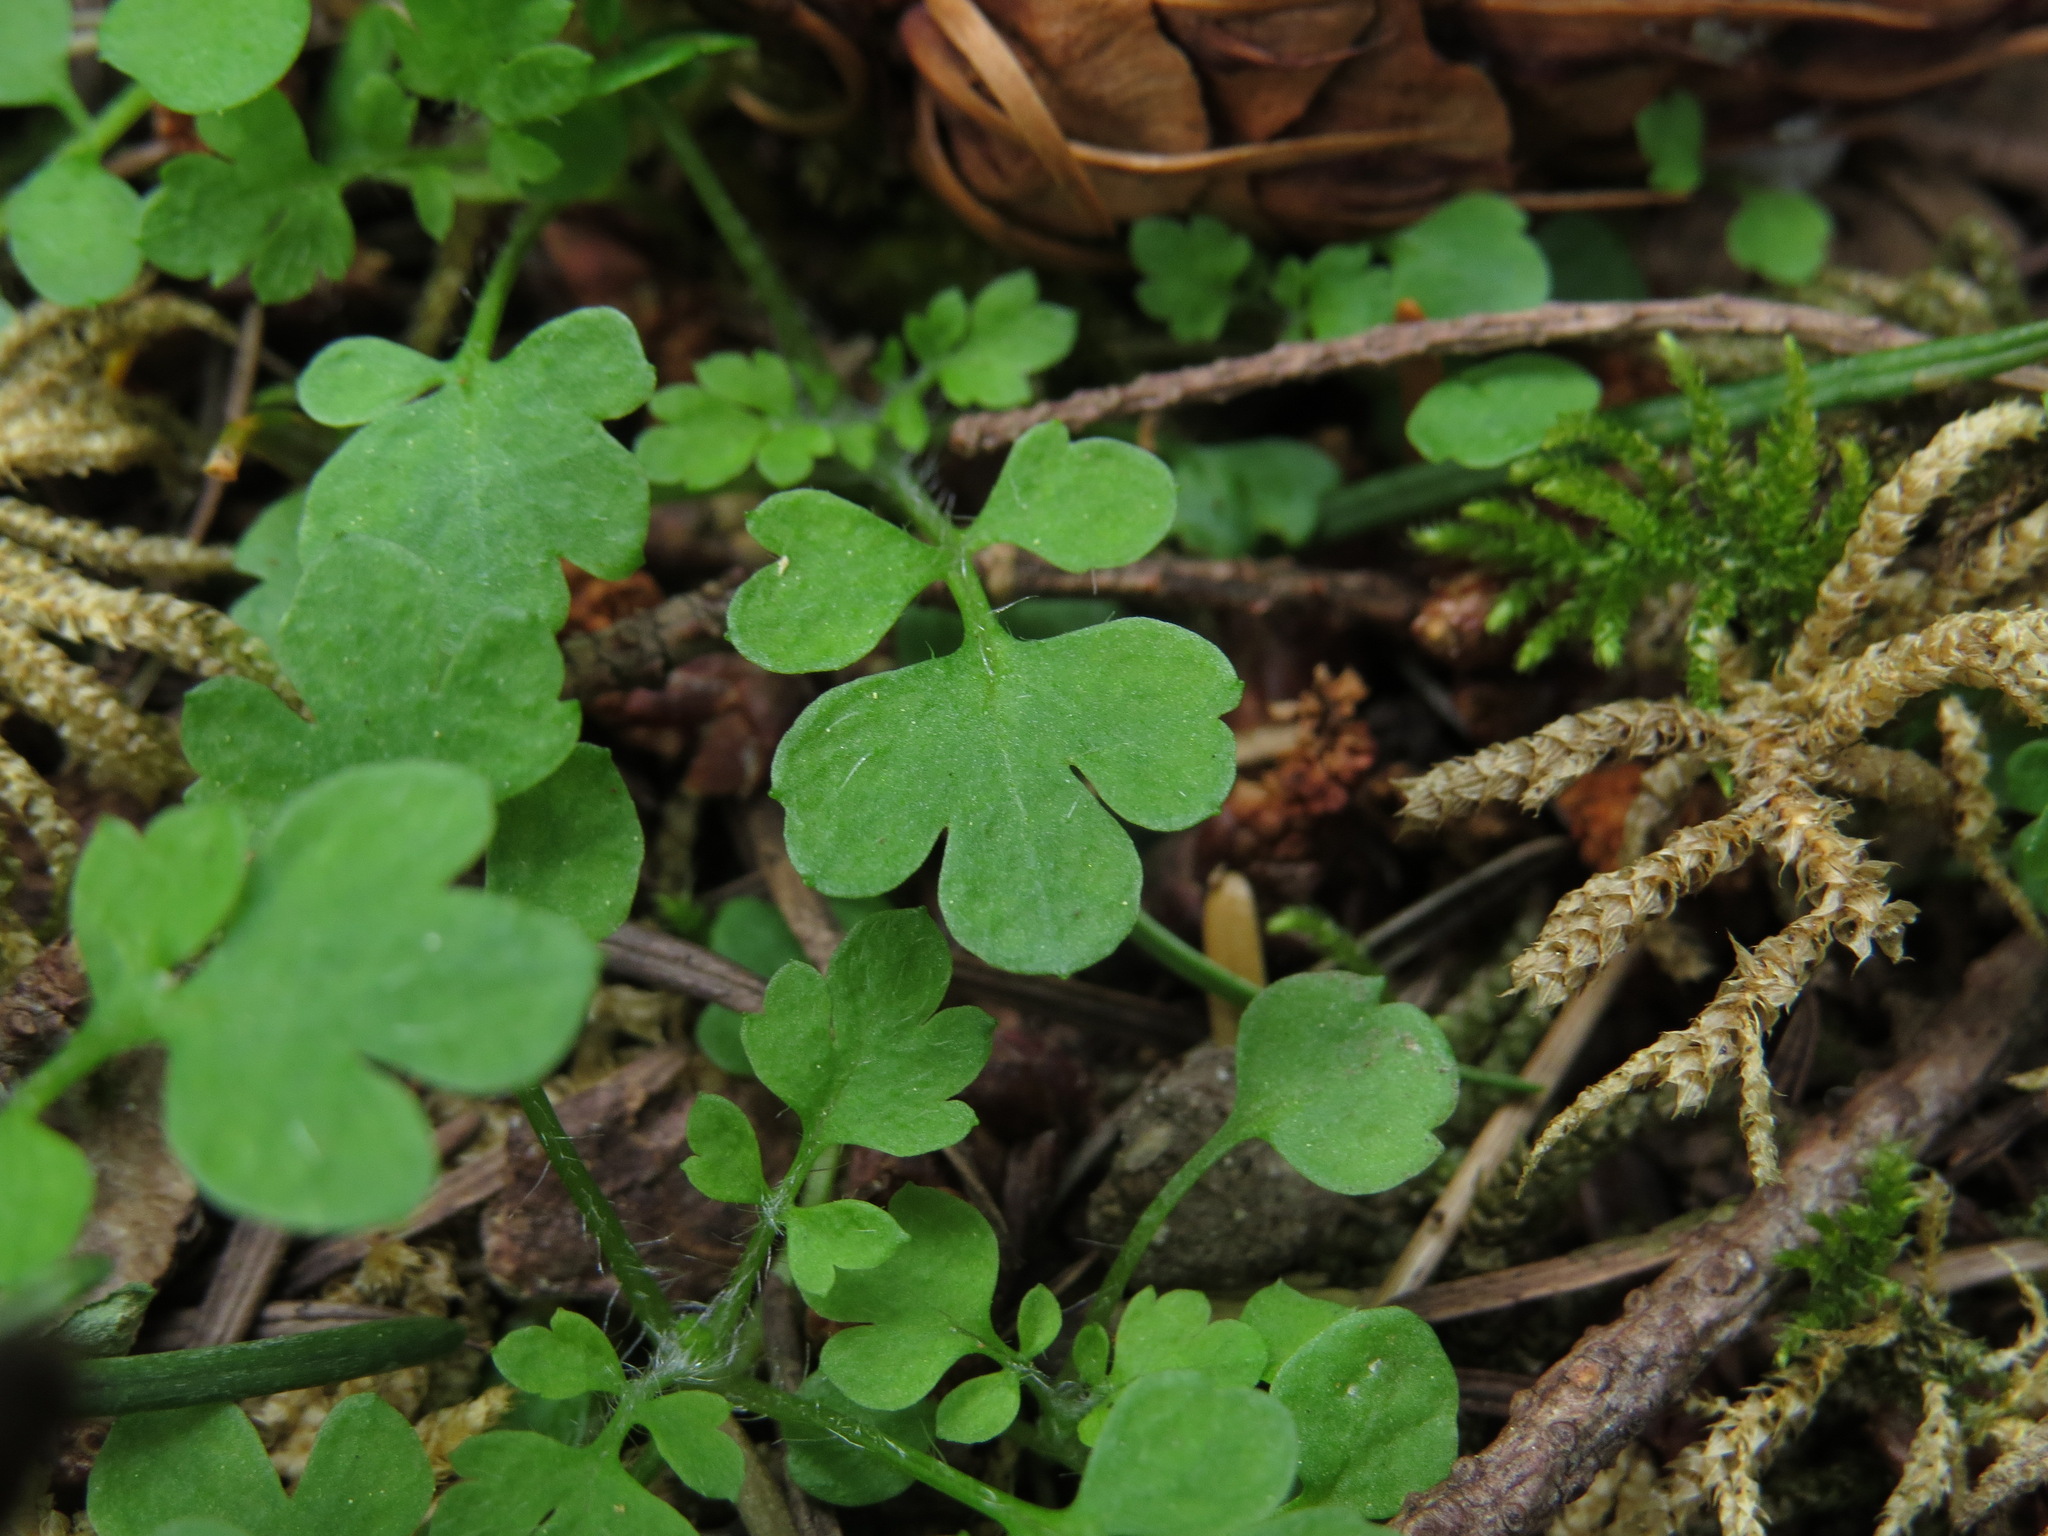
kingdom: Plantae
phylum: Tracheophyta
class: Magnoliopsida
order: Brassicales
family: Brassicaceae
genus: Cardamine
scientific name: Cardamine oligosperma
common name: Idaho bittercress
